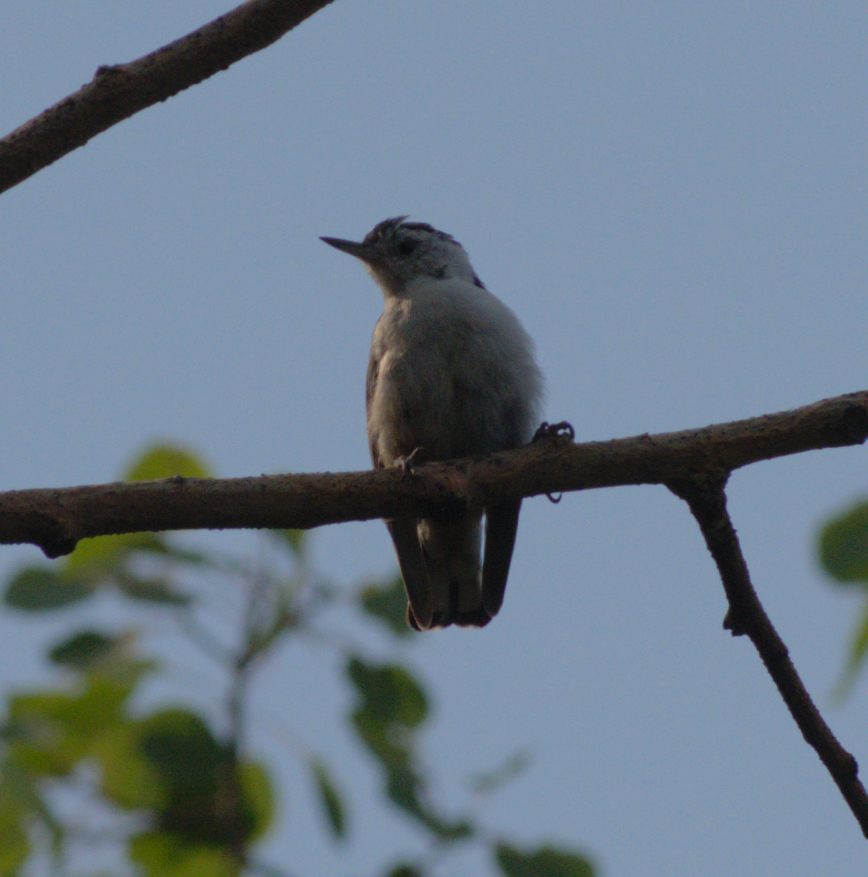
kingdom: Animalia
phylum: Chordata
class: Aves
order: Passeriformes
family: Sittidae
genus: Sitta
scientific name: Sitta carolinensis
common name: White-breasted nuthatch
